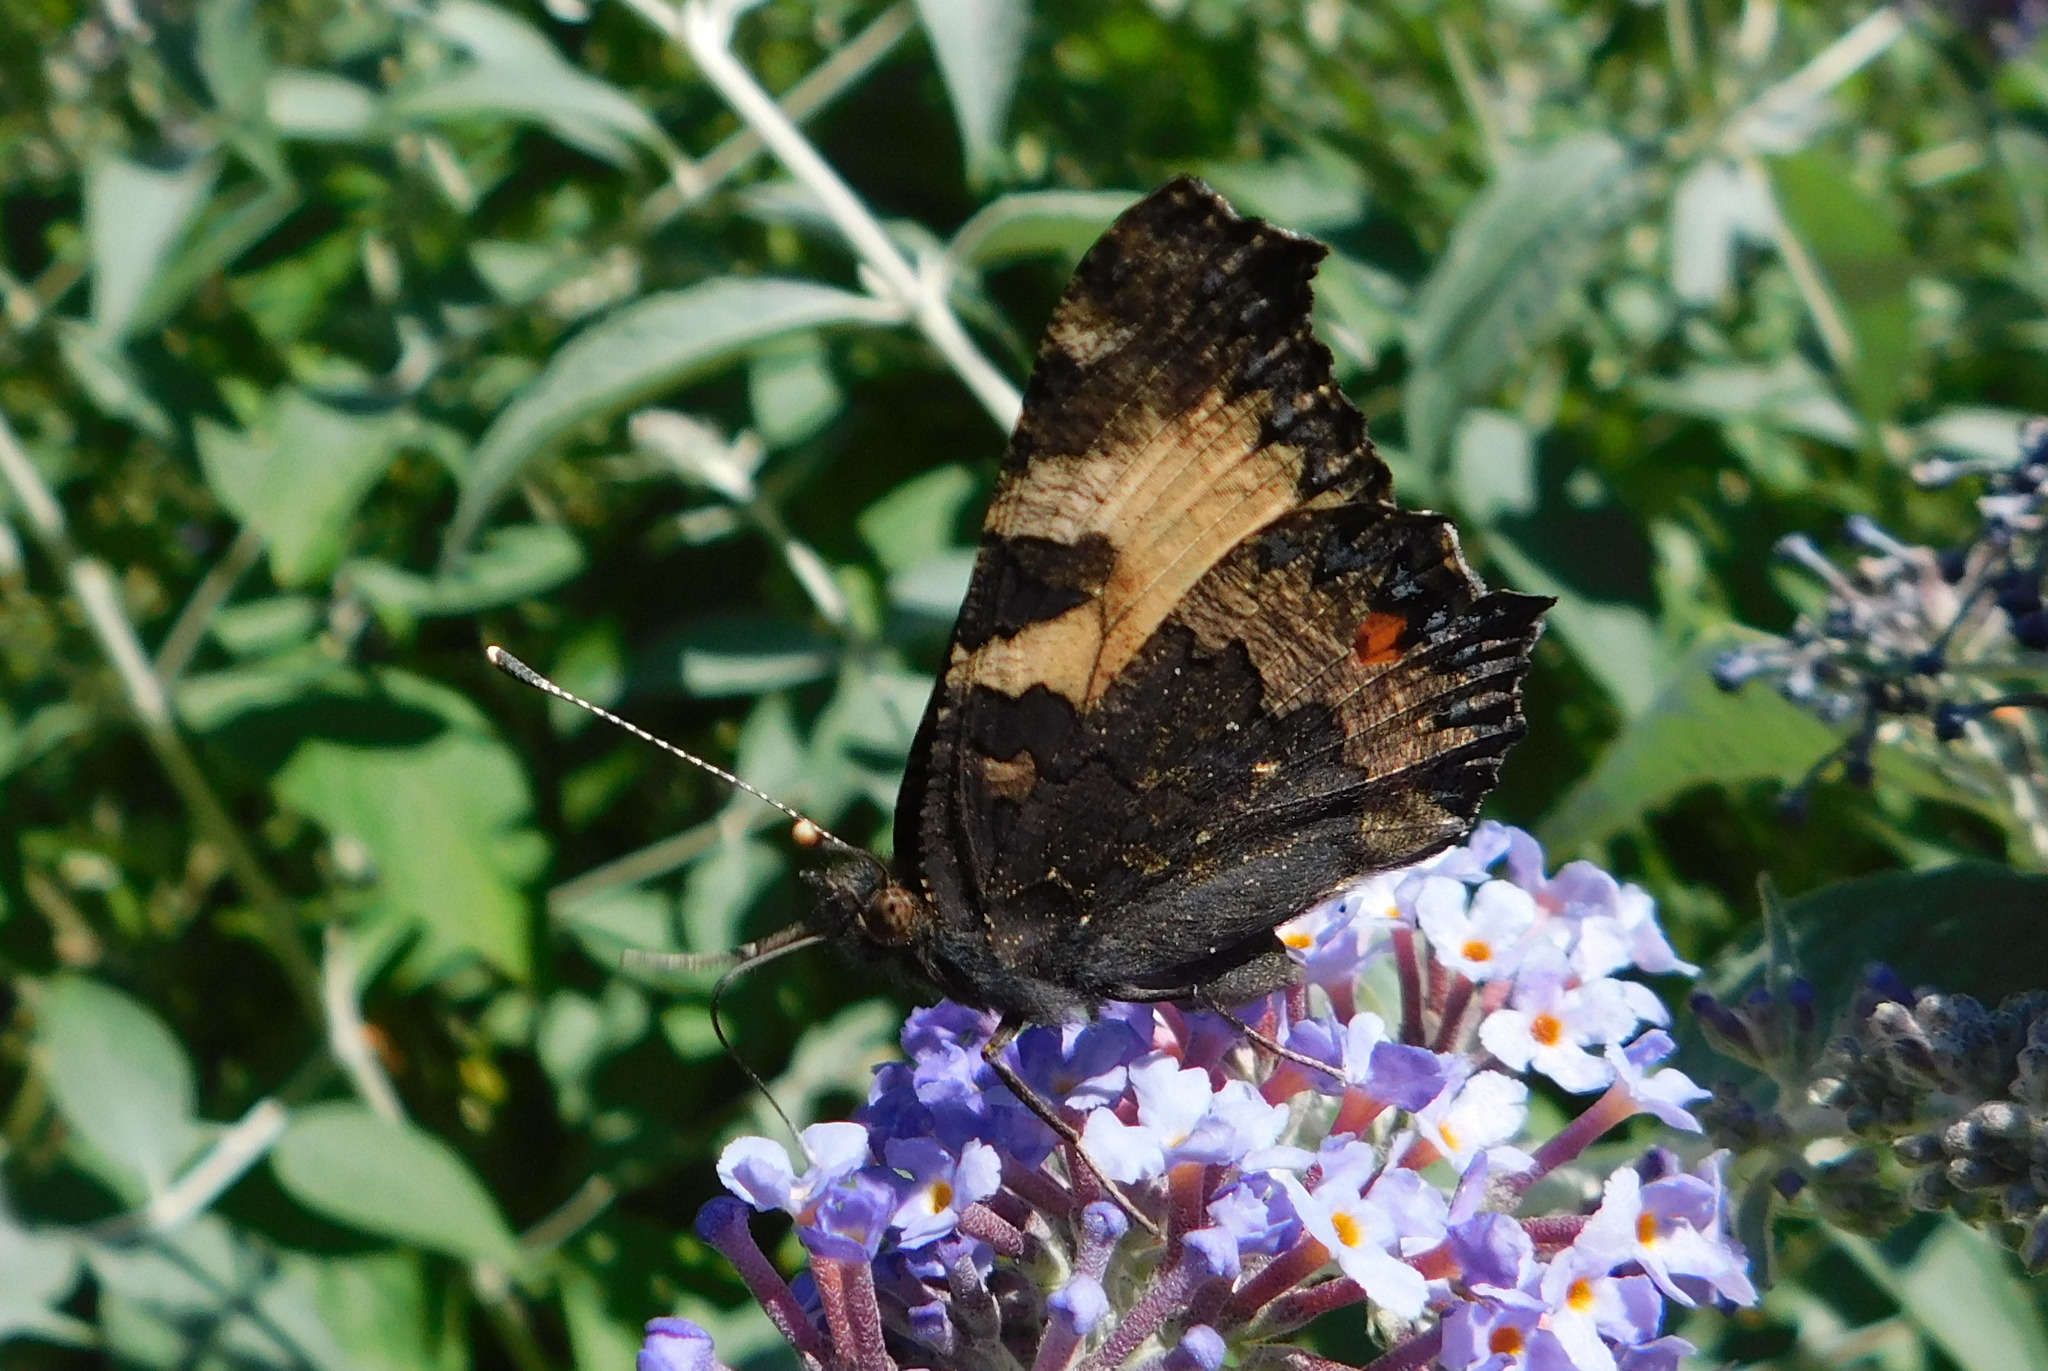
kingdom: Animalia
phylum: Arthropoda
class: Insecta
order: Lepidoptera
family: Nymphalidae
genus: Aglais
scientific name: Aglais urticae
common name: Small tortoiseshell
